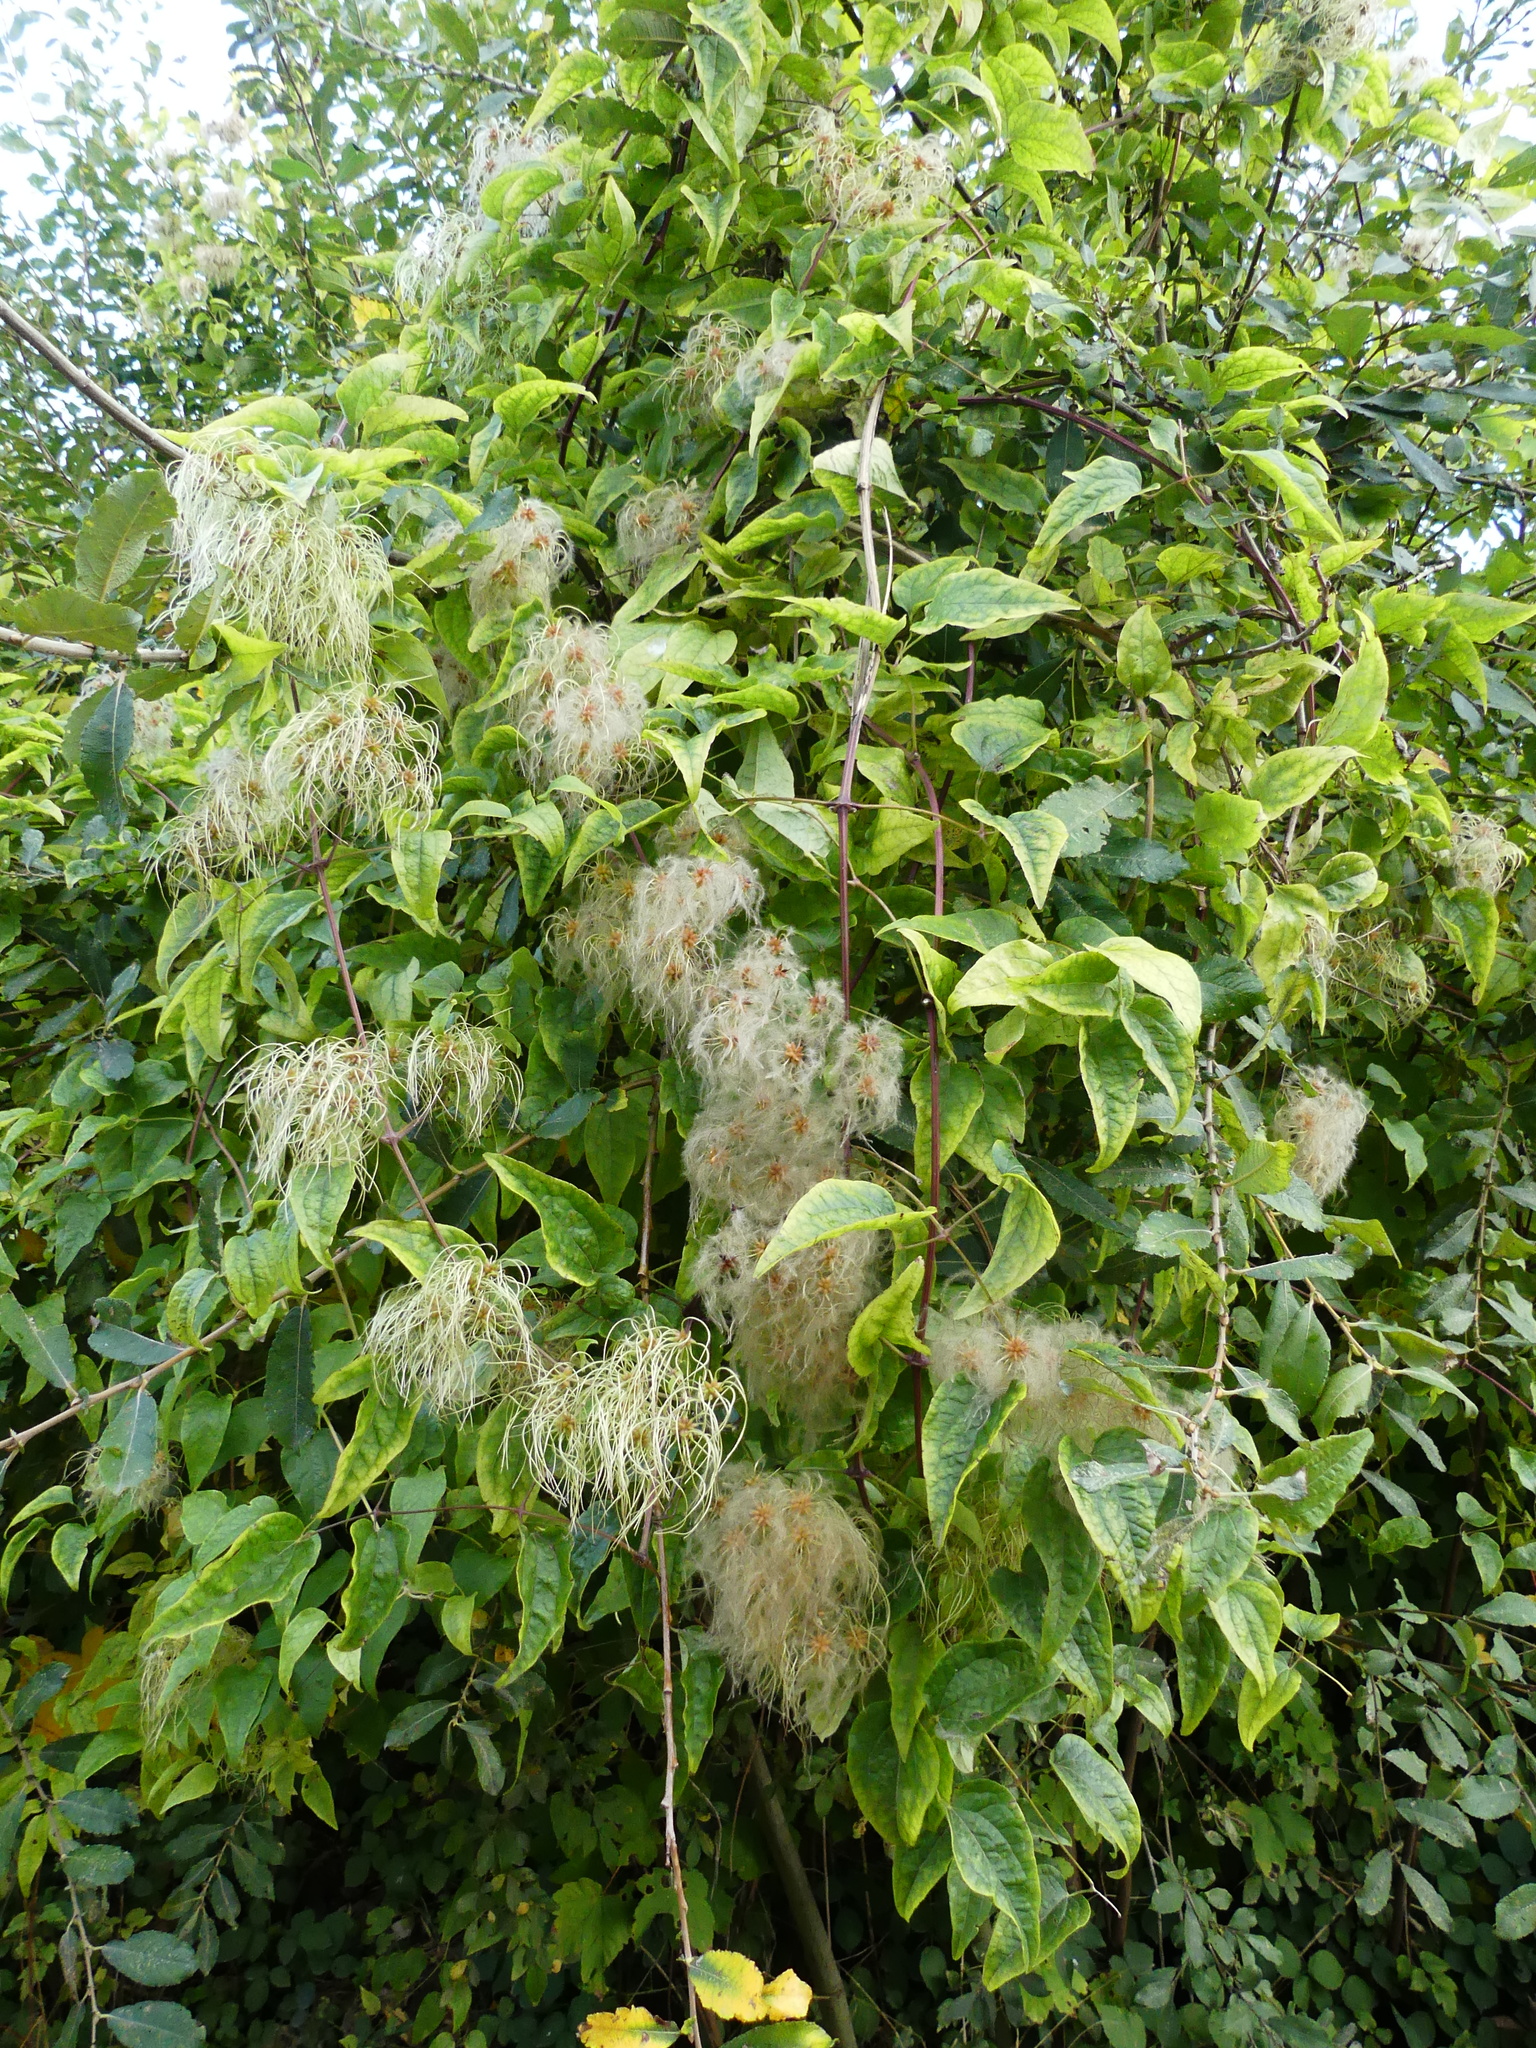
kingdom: Plantae
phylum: Tracheophyta
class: Magnoliopsida
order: Ranunculales
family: Ranunculaceae
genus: Clematis
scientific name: Clematis vitalba
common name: Evergreen clematis
